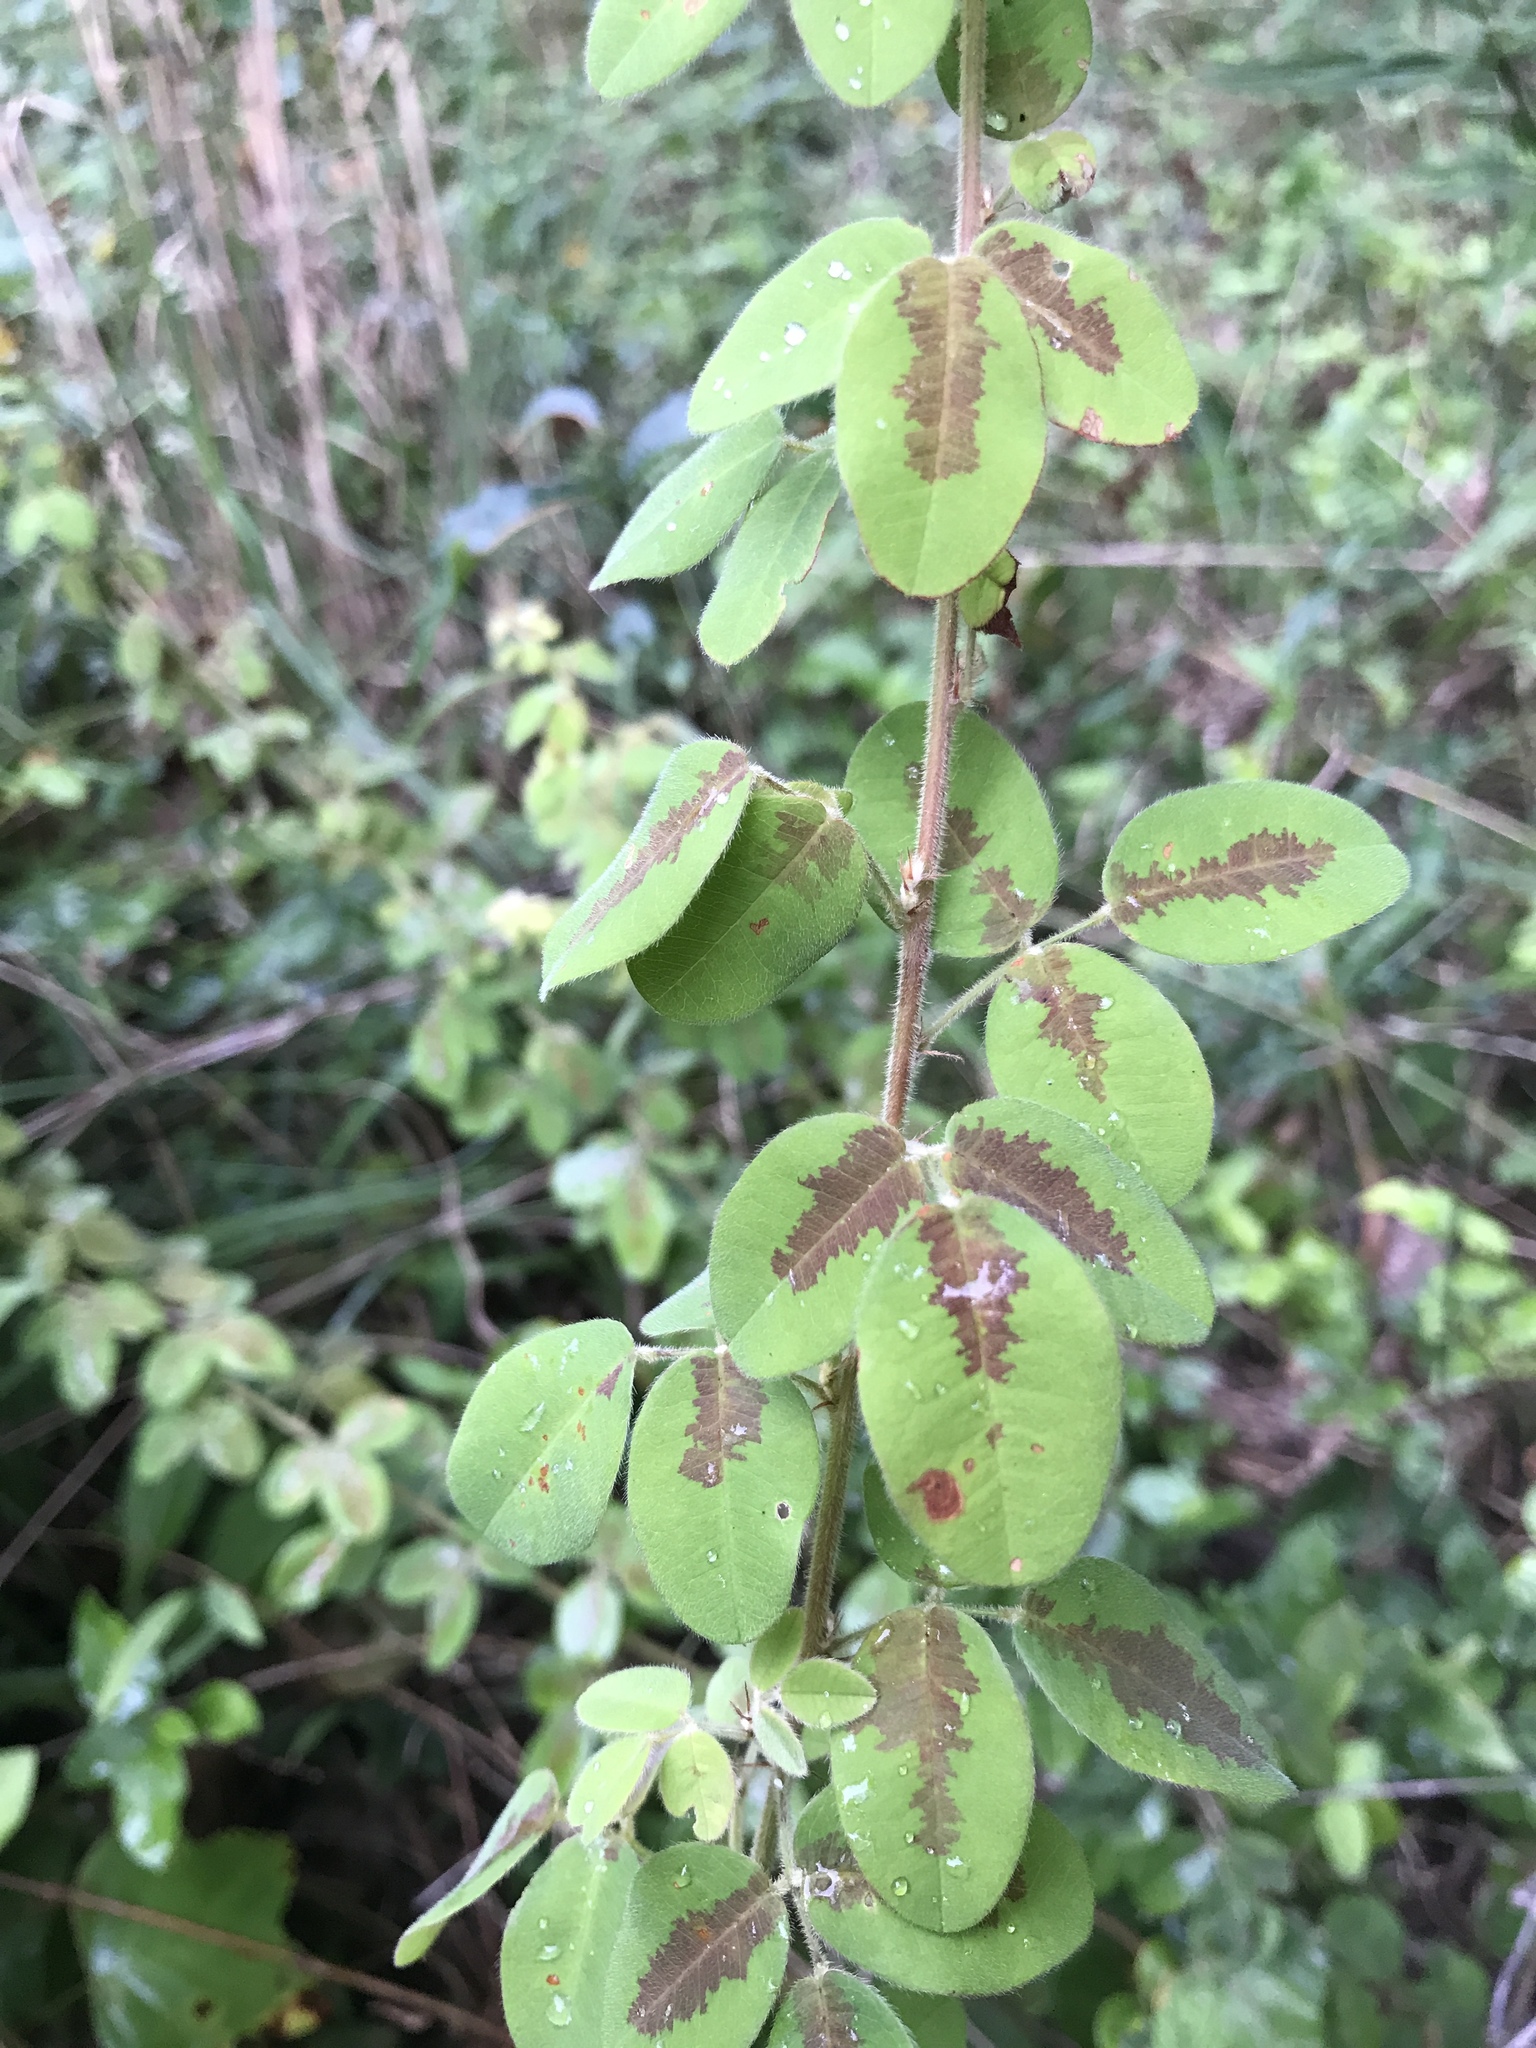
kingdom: Plantae
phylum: Tracheophyta
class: Magnoliopsida
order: Fabales
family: Fabaceae
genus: Lespedeza
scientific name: Lespedeza hirta
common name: Hairy lespedeza
